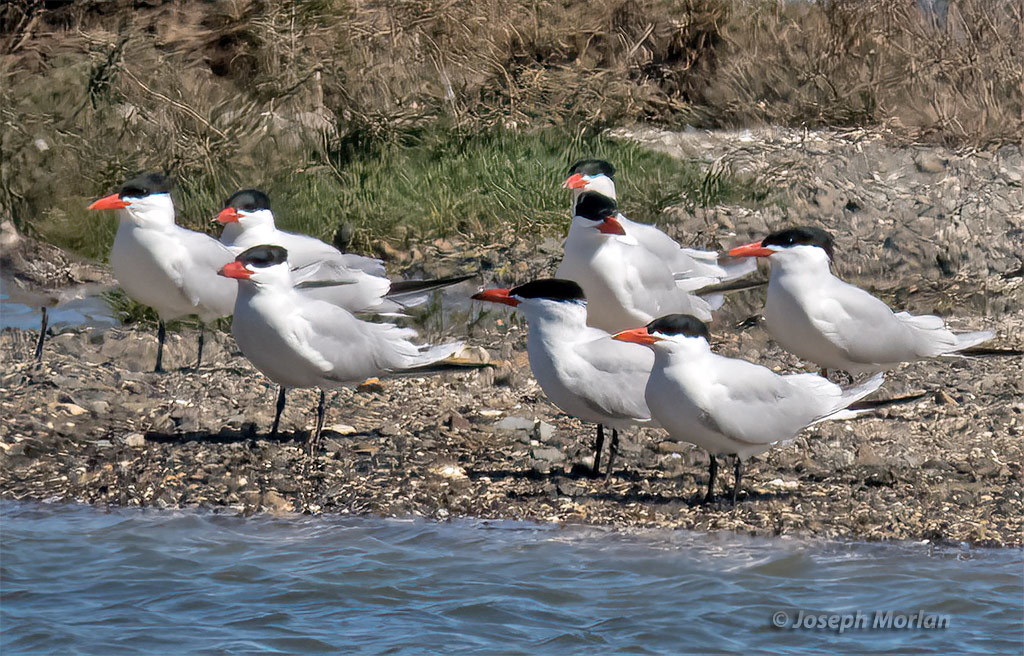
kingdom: Animalia
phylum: Chordata
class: Aves
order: Charadriiformes
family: Laridae
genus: Hydroprogne
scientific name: Hydroprogne caspia
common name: Caspian tern
